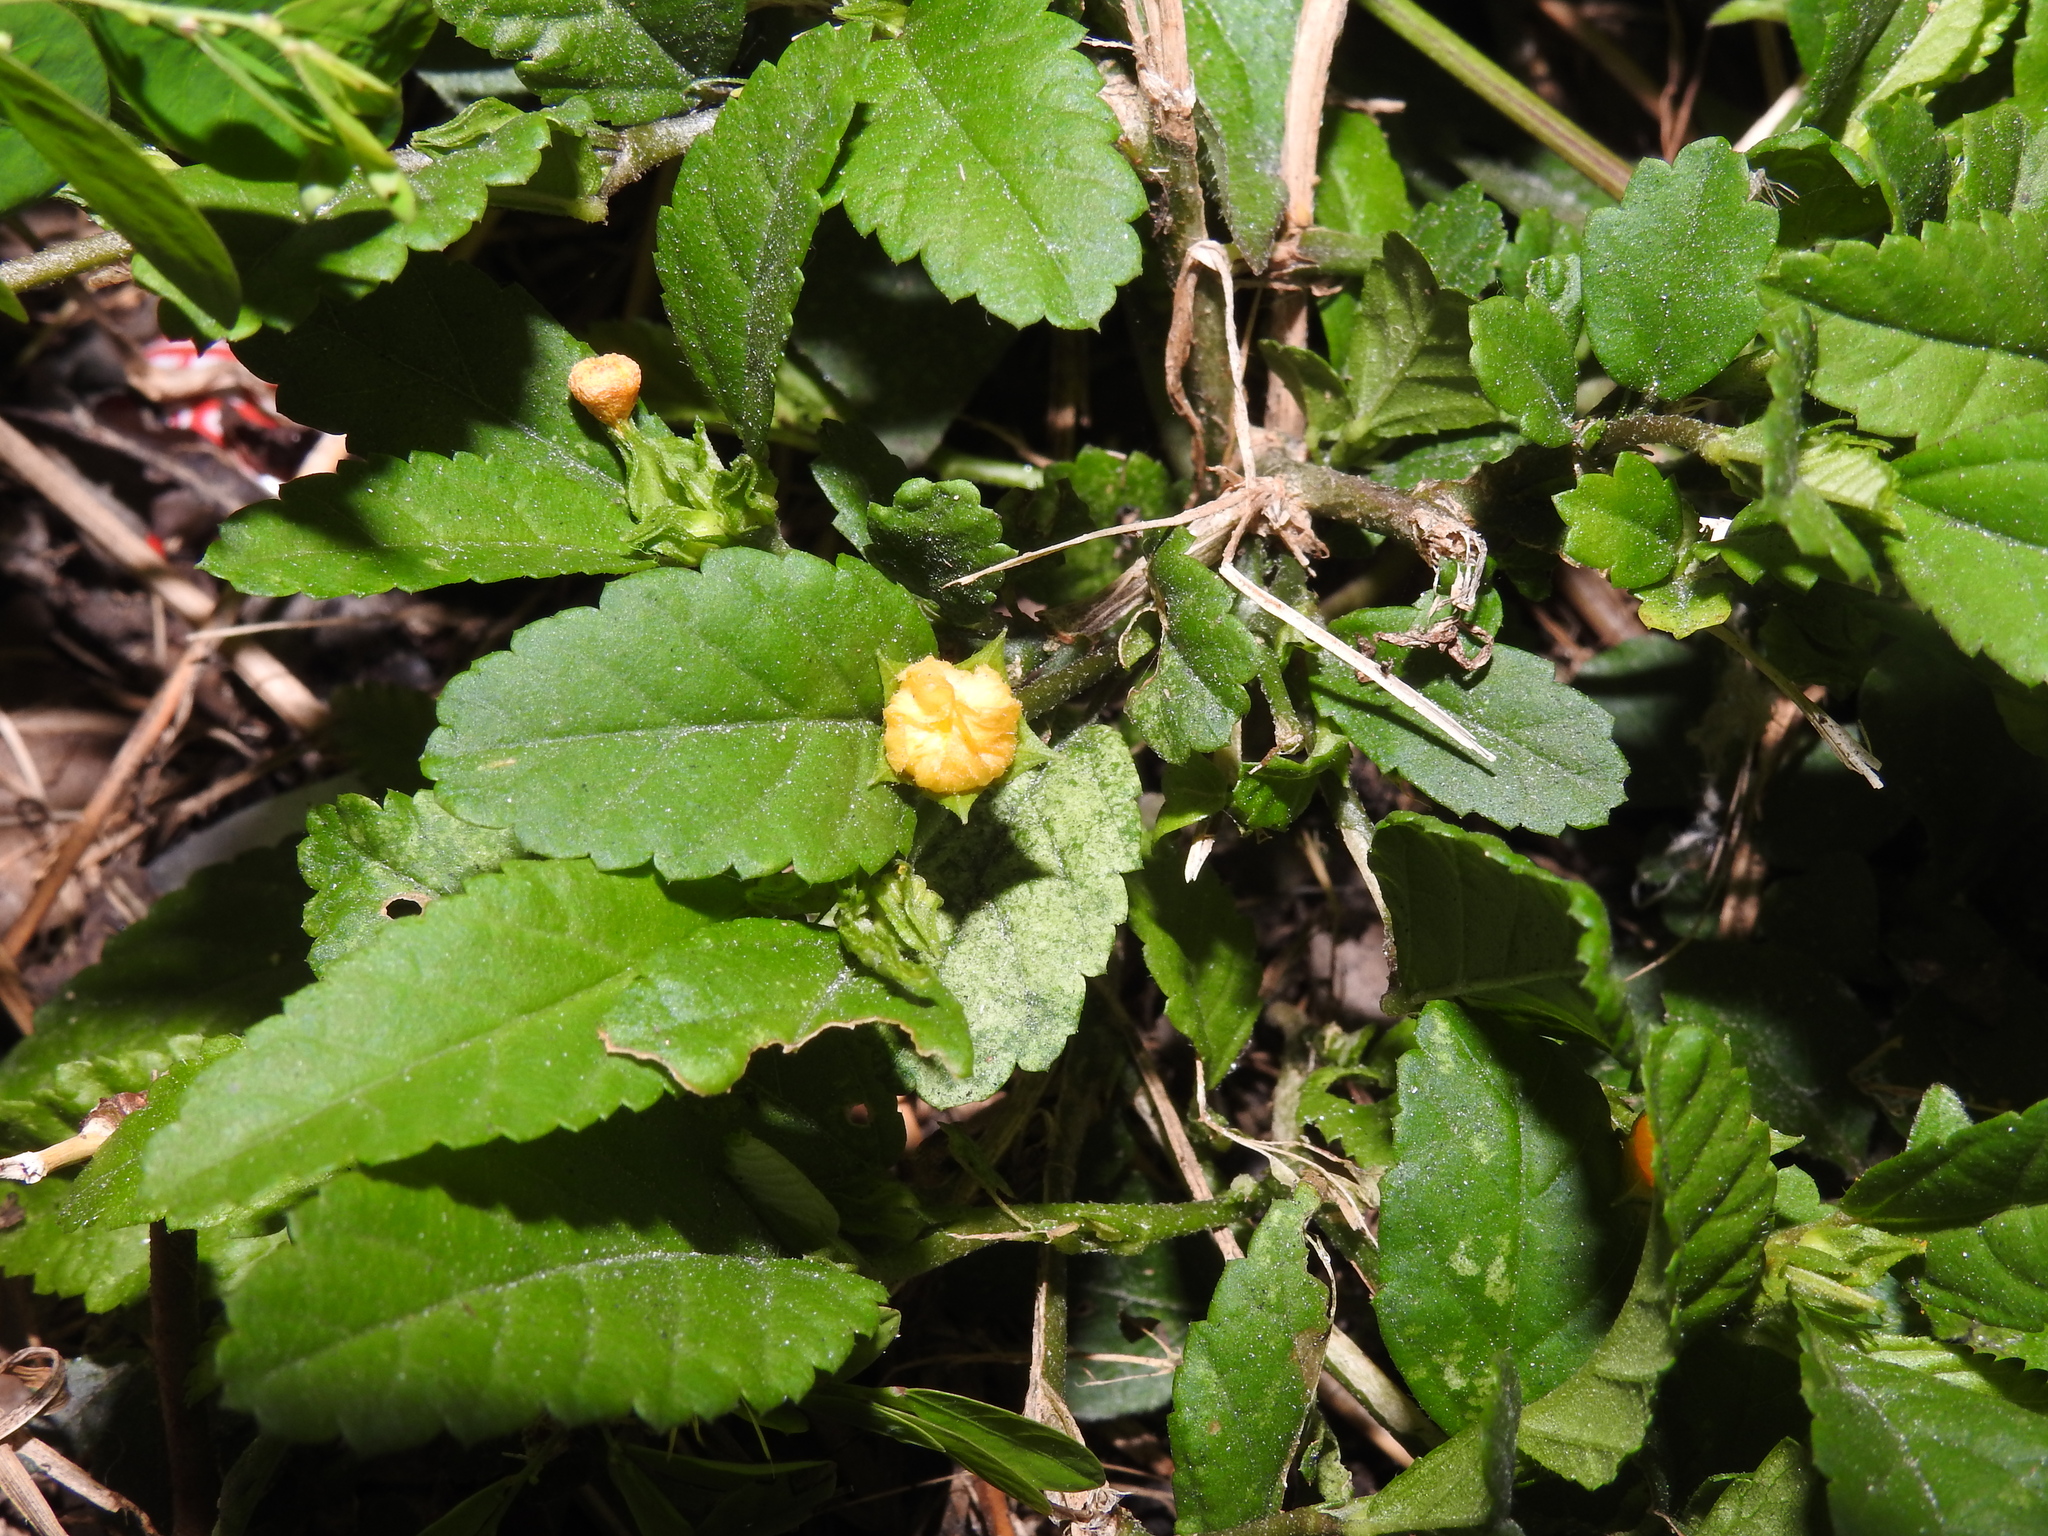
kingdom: Plantae
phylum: Tracheophyta
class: Magnoliopsida
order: Malvales
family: Malvaceae
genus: Sida
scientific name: Sida ulmifolia
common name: Broom weed
